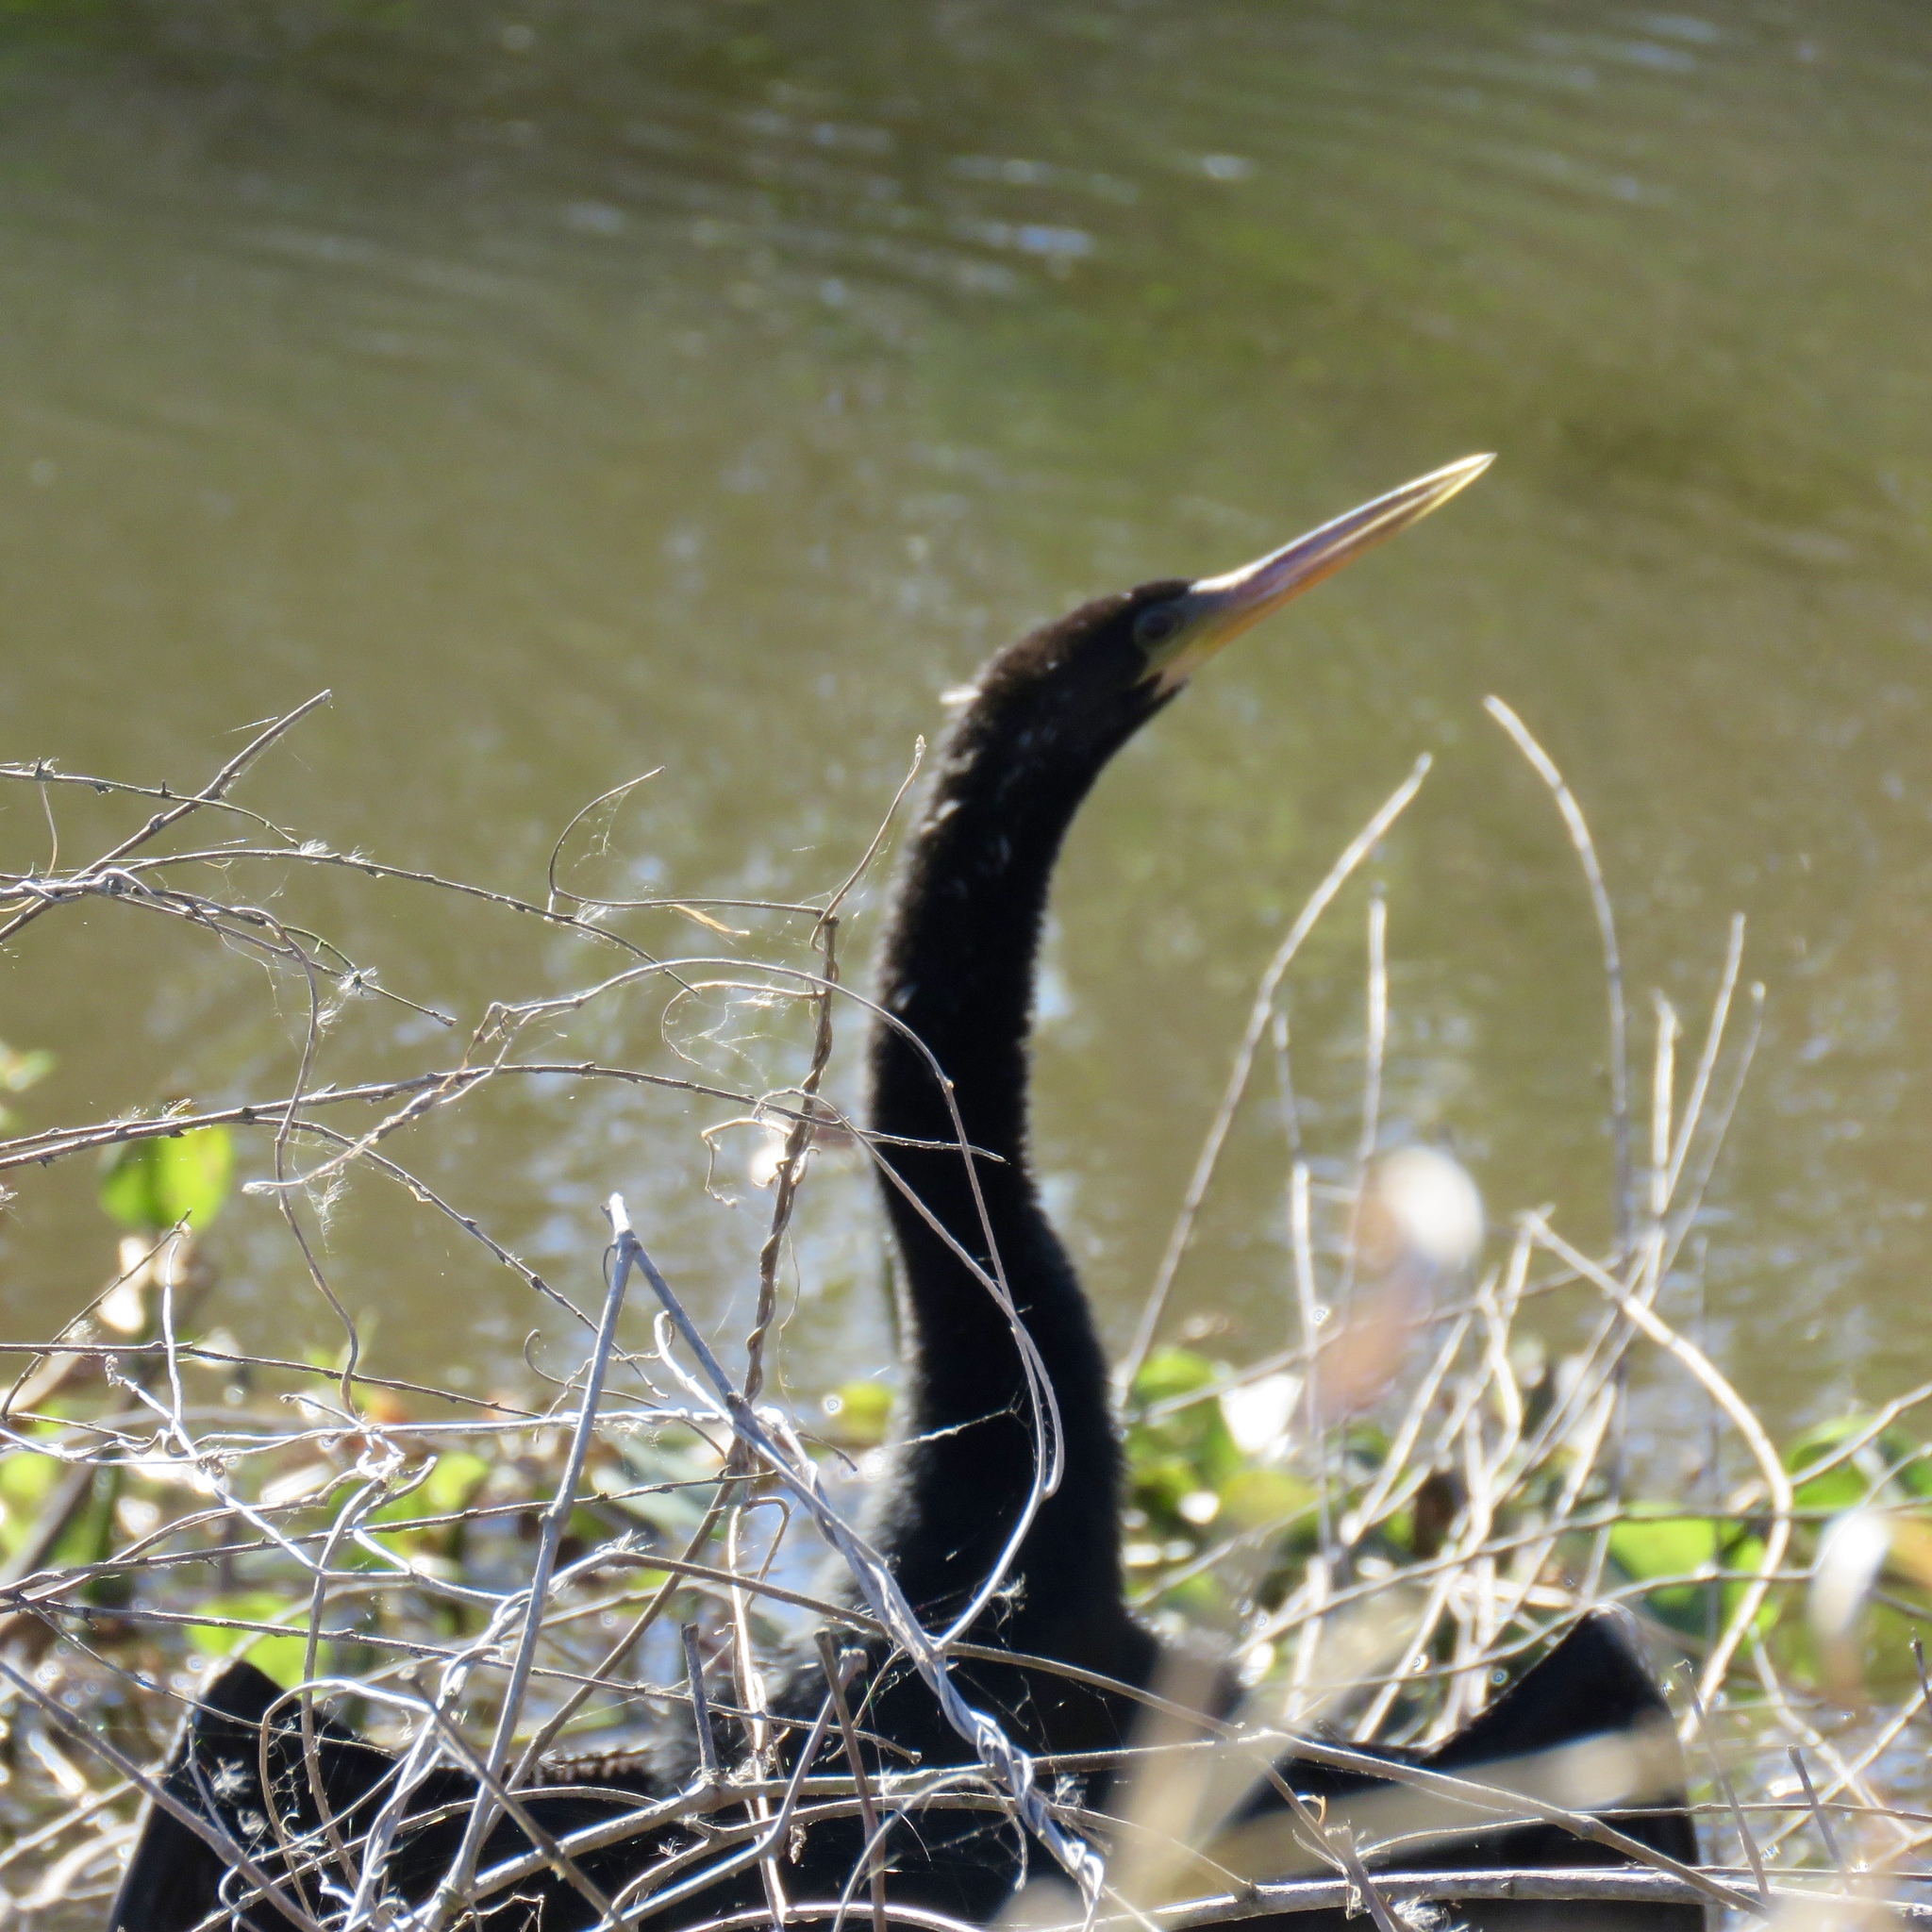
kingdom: Animalia
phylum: Chordata
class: Aves
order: Suliformes
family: Anhingidae
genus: Anhinga
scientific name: Anhinga anhinga
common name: Anhinga
